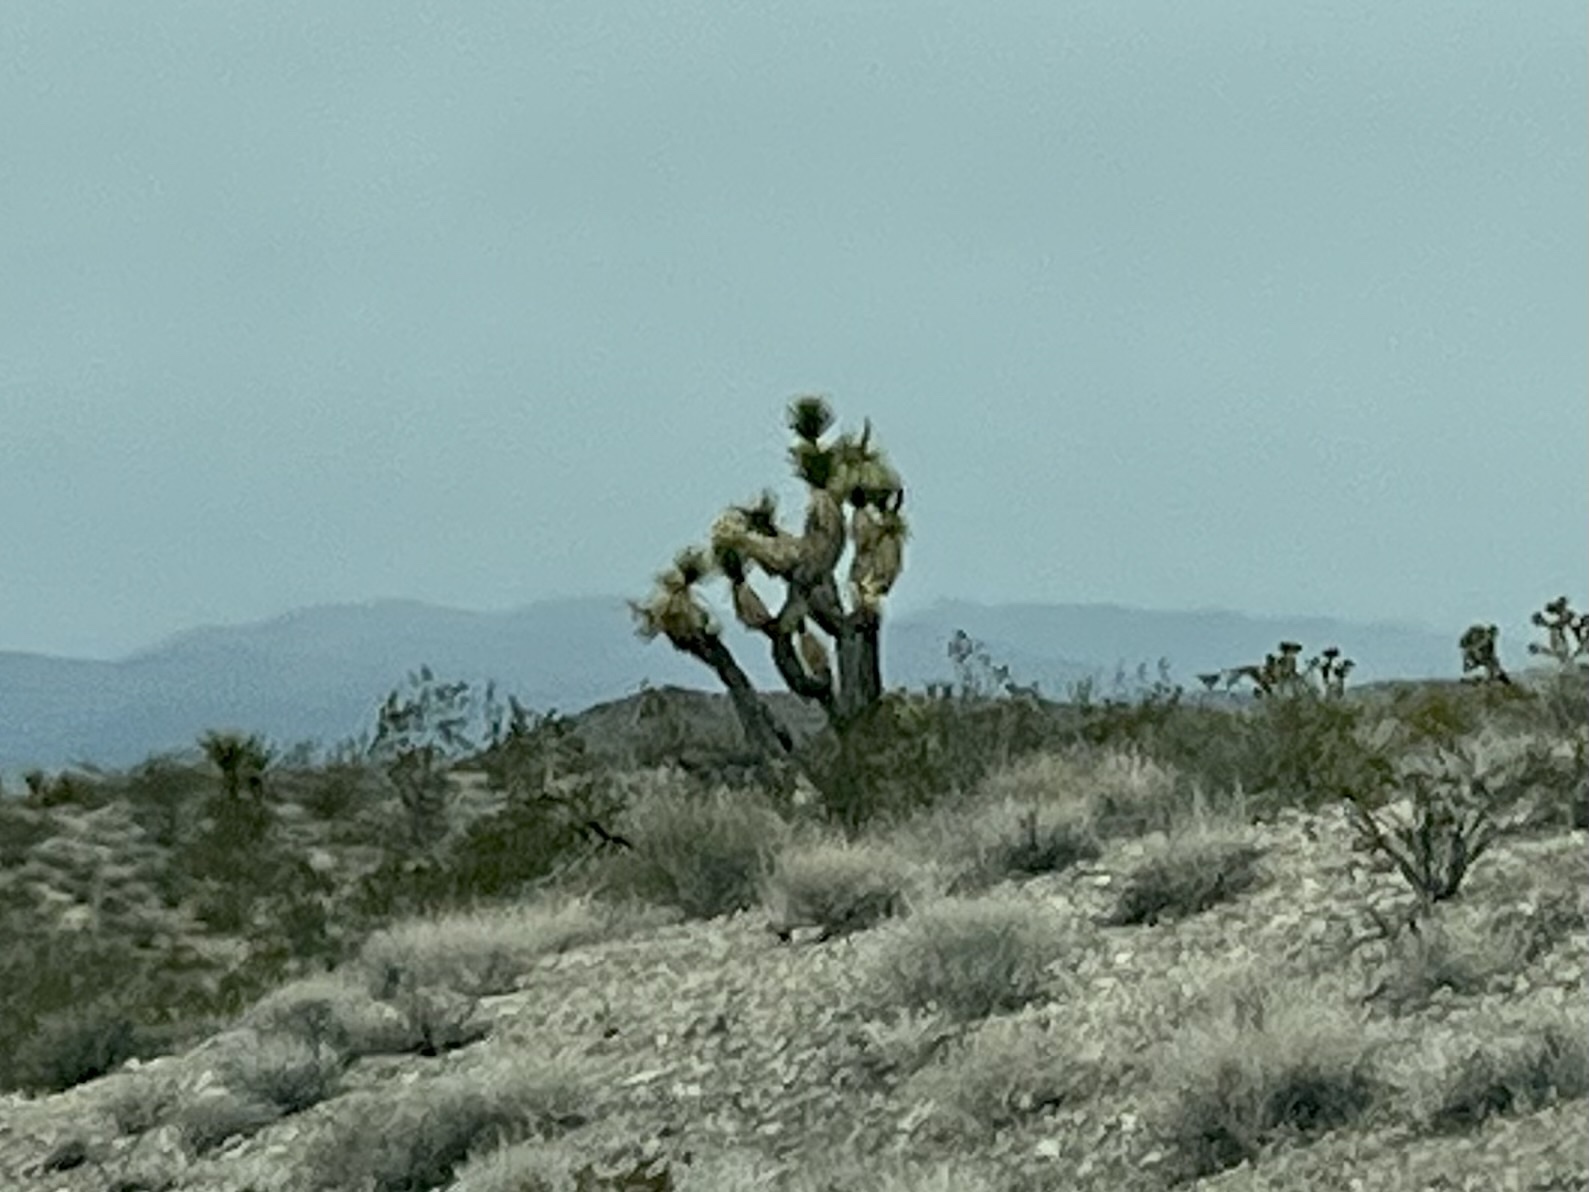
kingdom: Plantae
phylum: Tracheophyta
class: Liliopsida
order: Asparagales
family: Asparagaceae
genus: Yucca
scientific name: Yucca brevifolia
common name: Joshua tree
